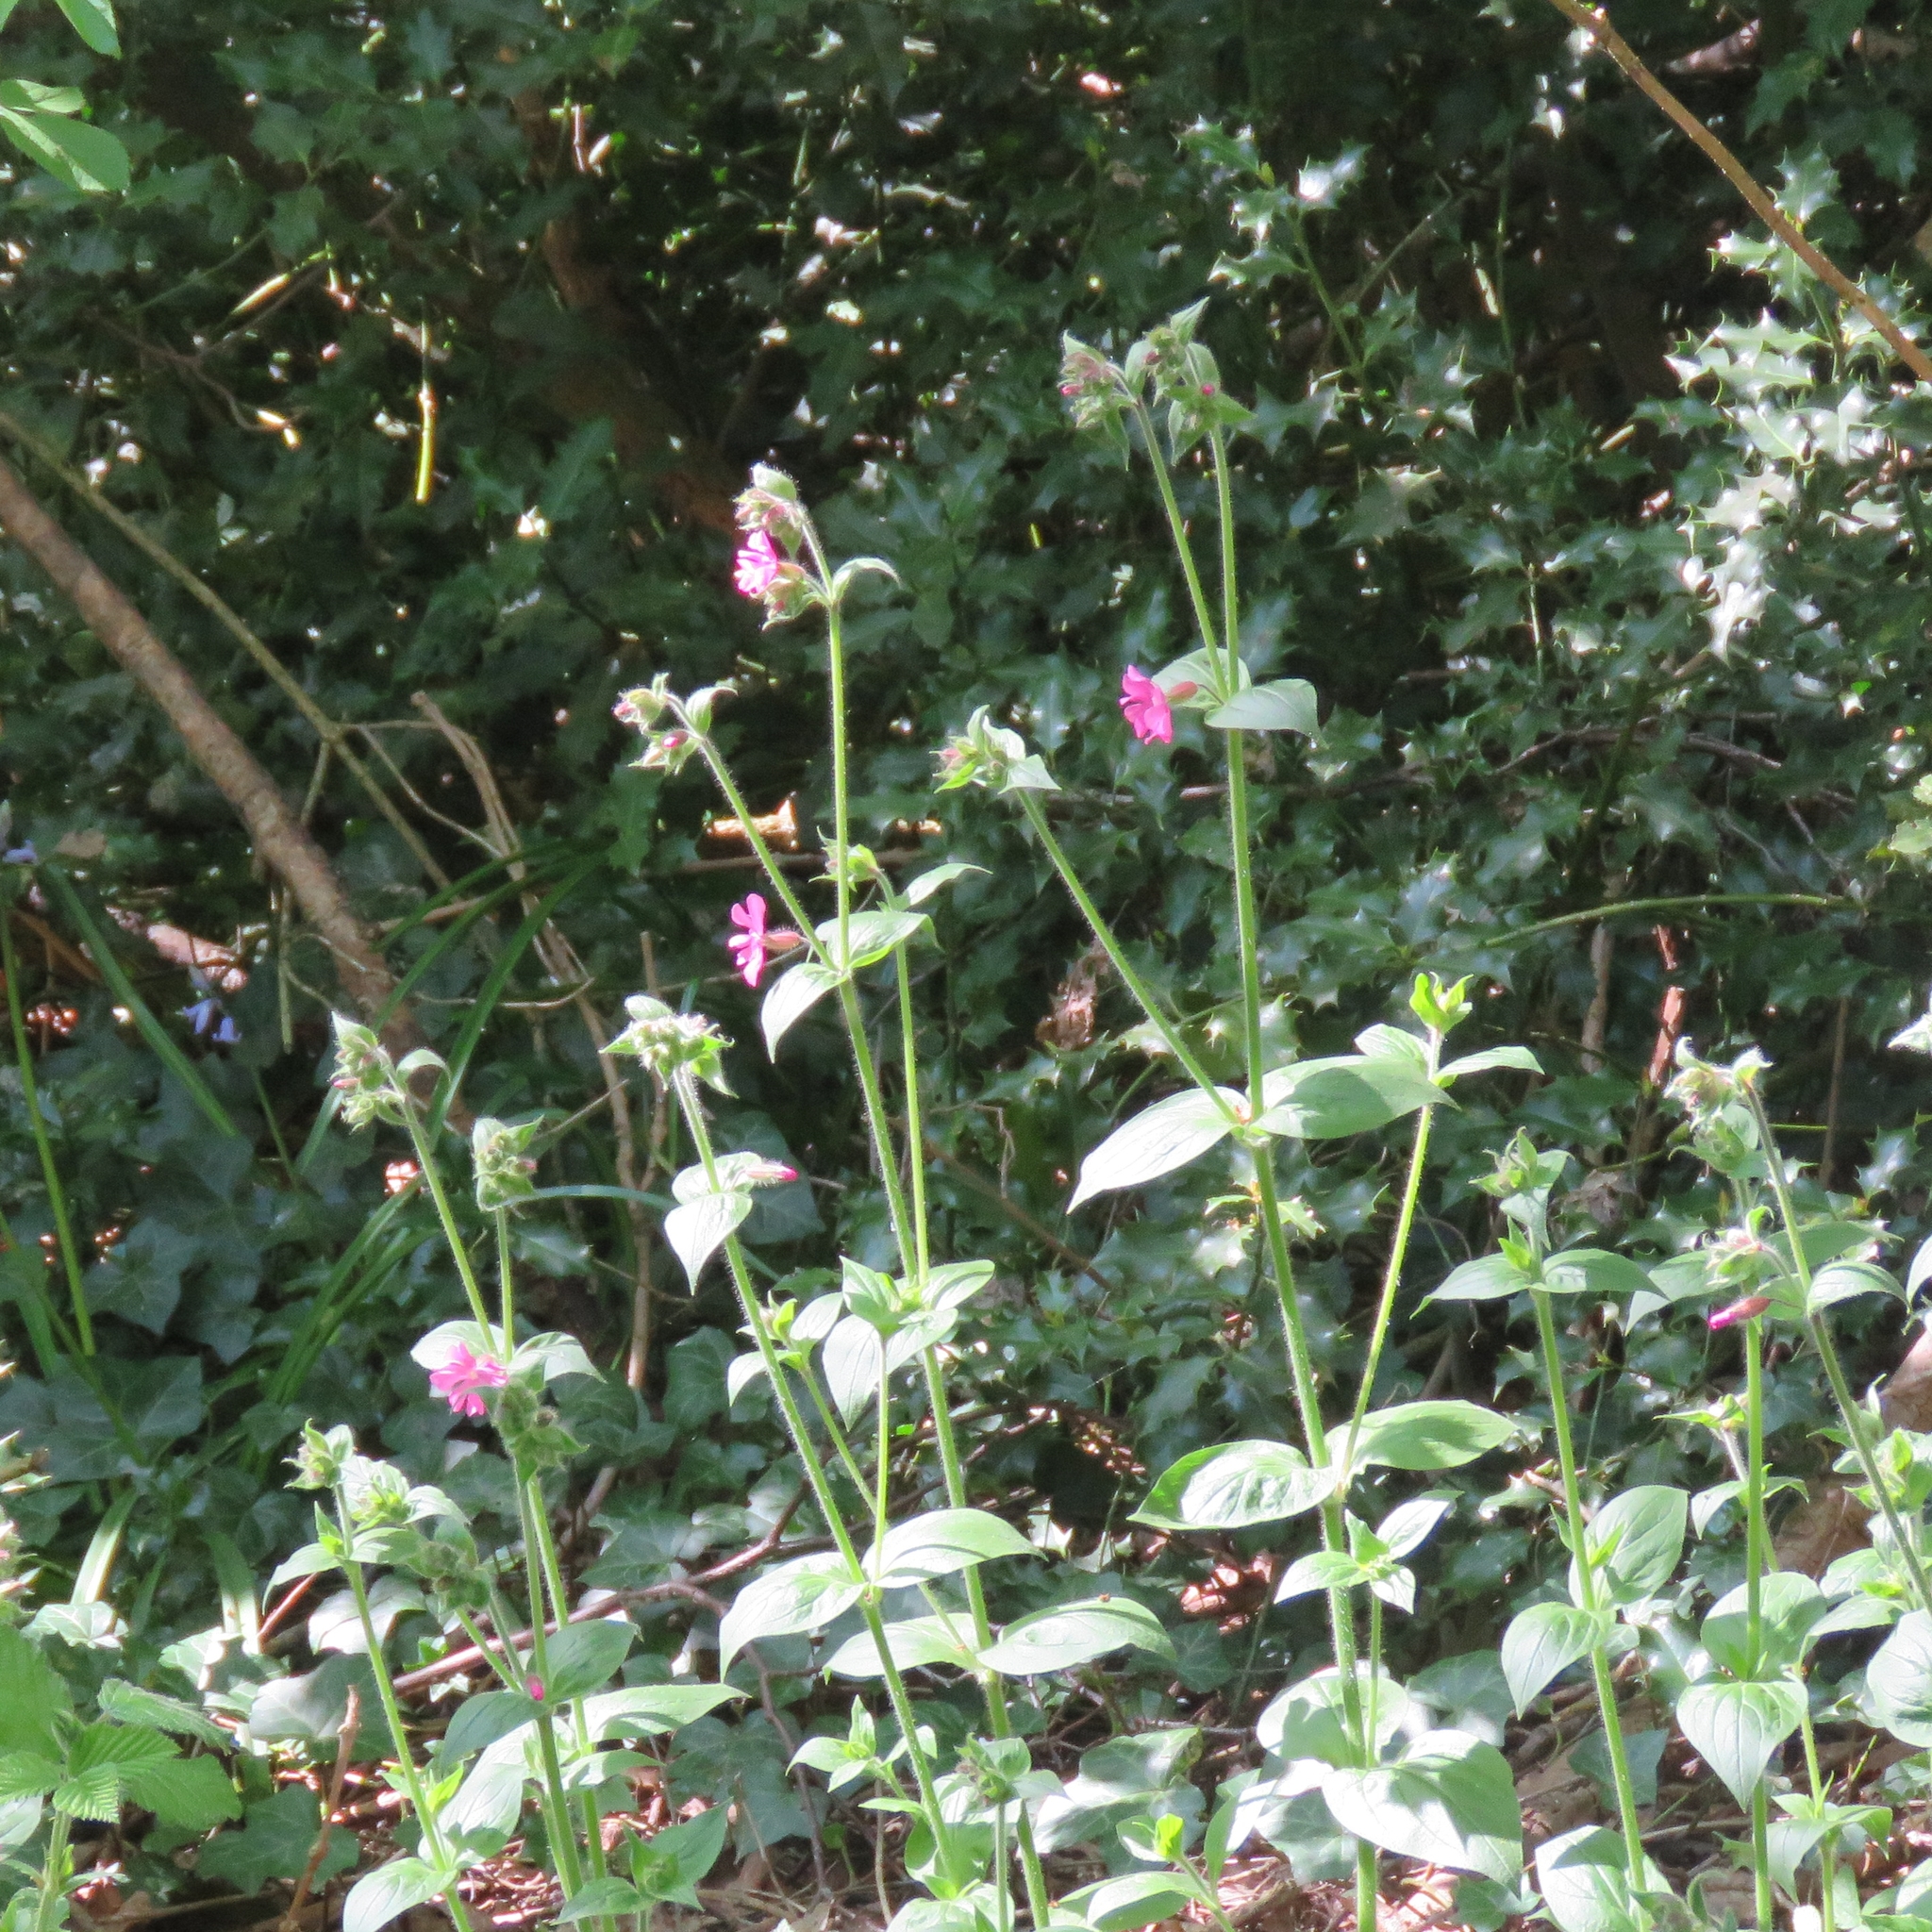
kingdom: Plantae
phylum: Tracheophyta
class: Magnoliopsida
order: Caryophyllales
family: Caryophyllaceae
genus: Silene
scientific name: Silene dioica
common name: Red campion
